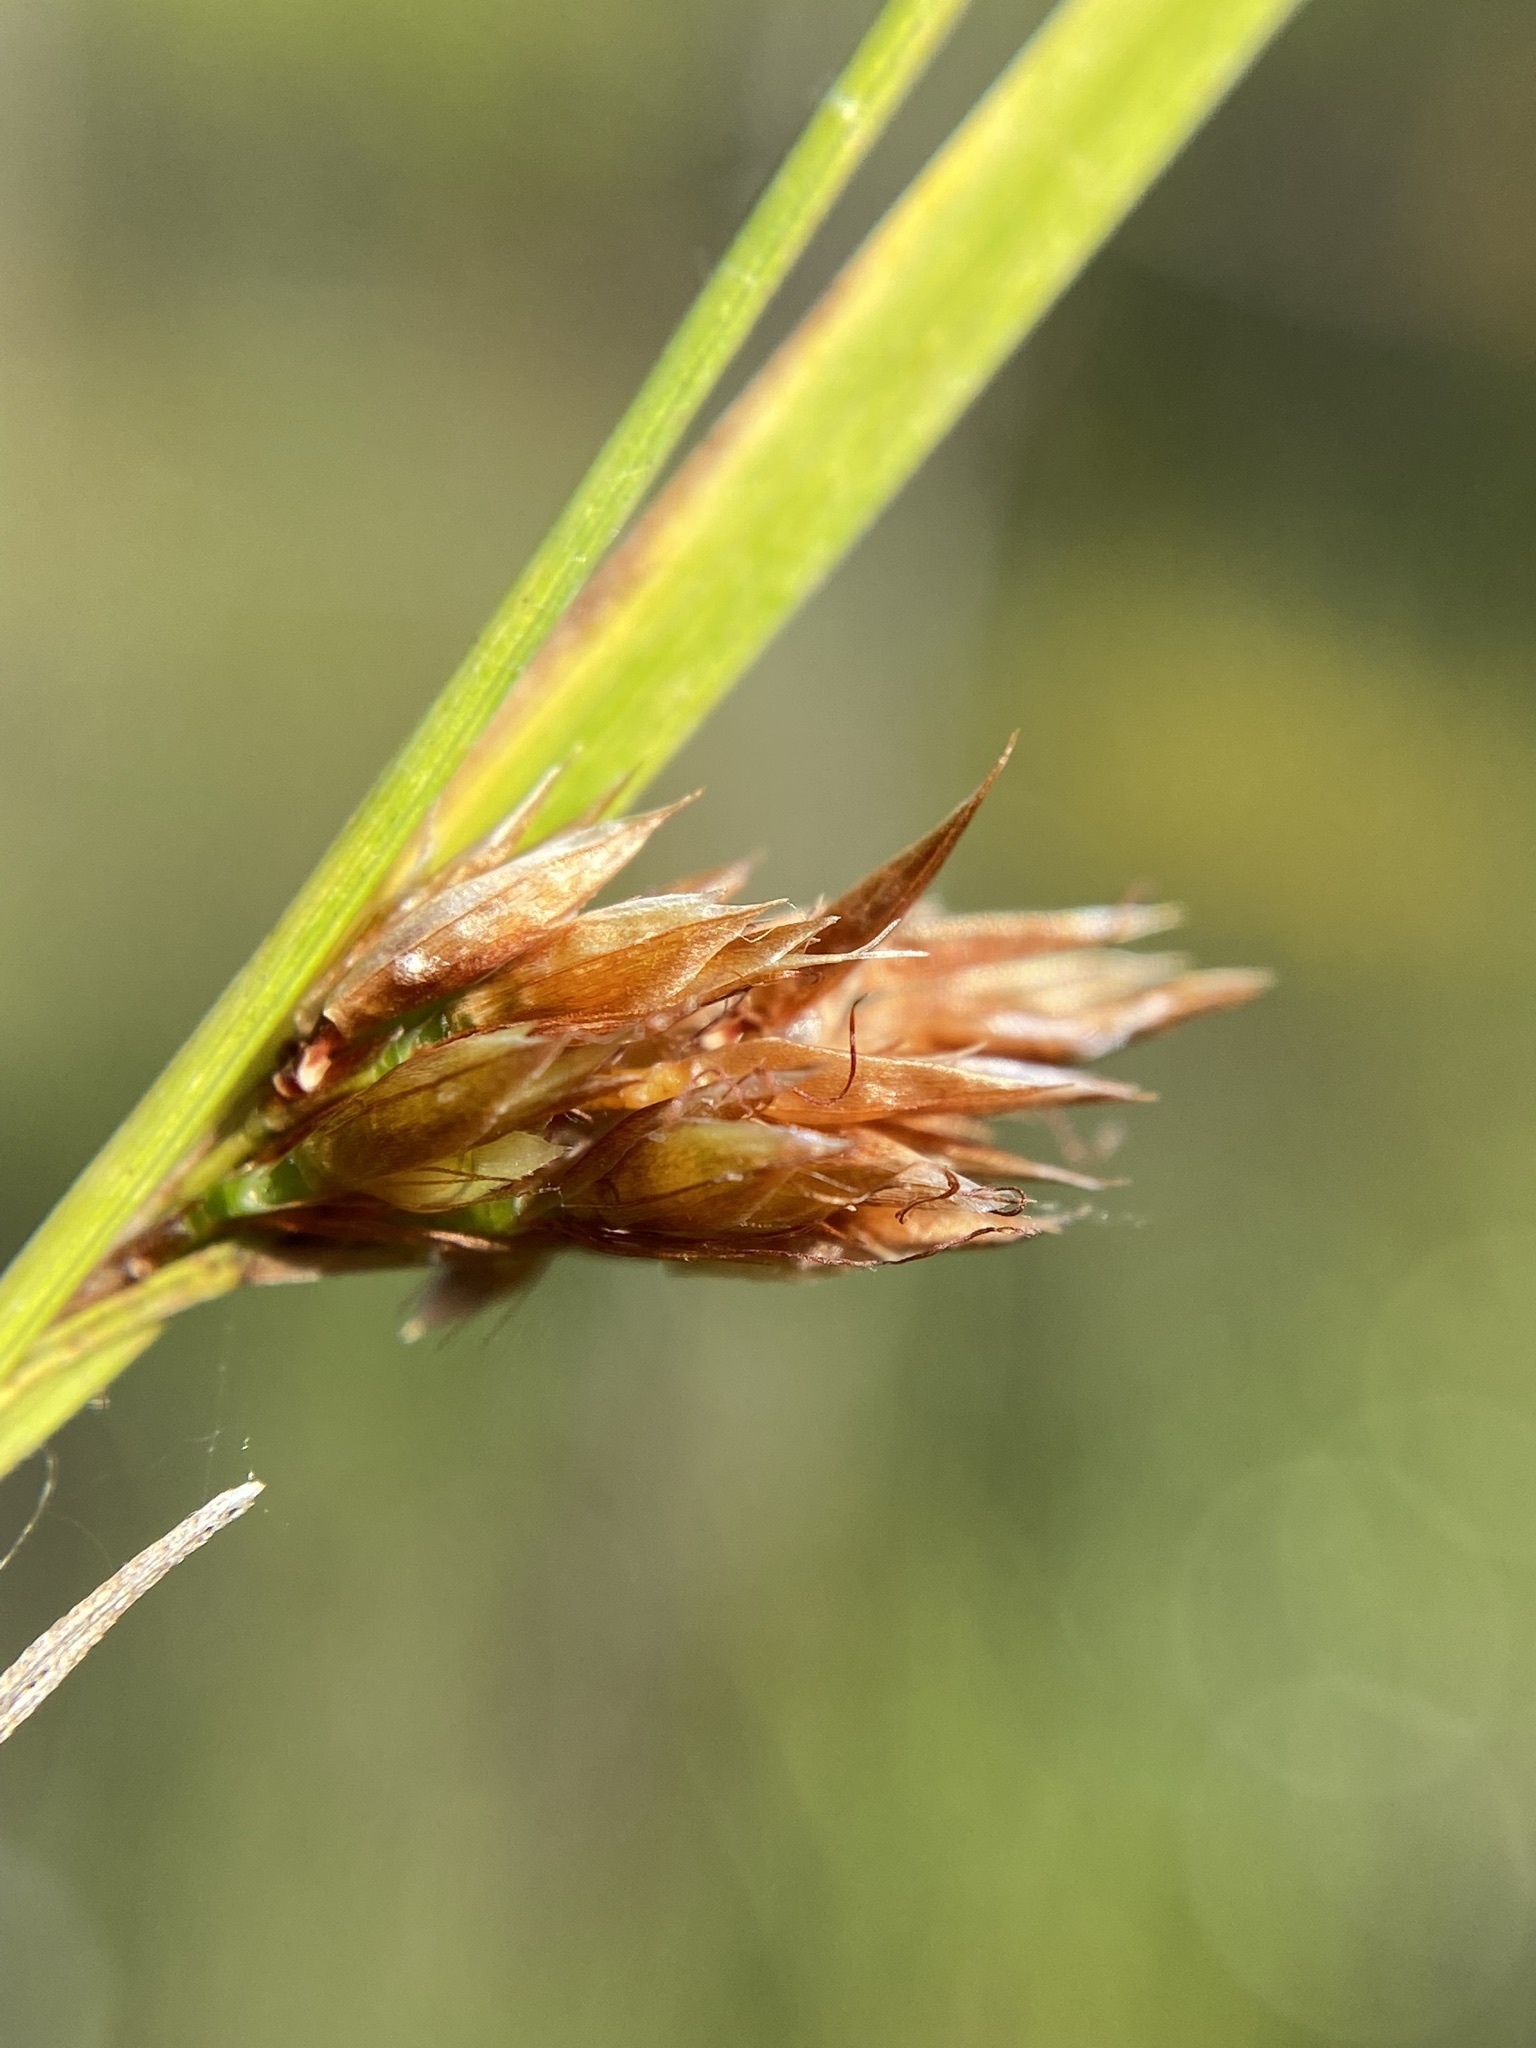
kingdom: Plantae
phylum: Tracheophyta
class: Liliopsida
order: Poales
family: Cyperaceae
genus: Rhynchospora
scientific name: Rhynchospora crinipes
